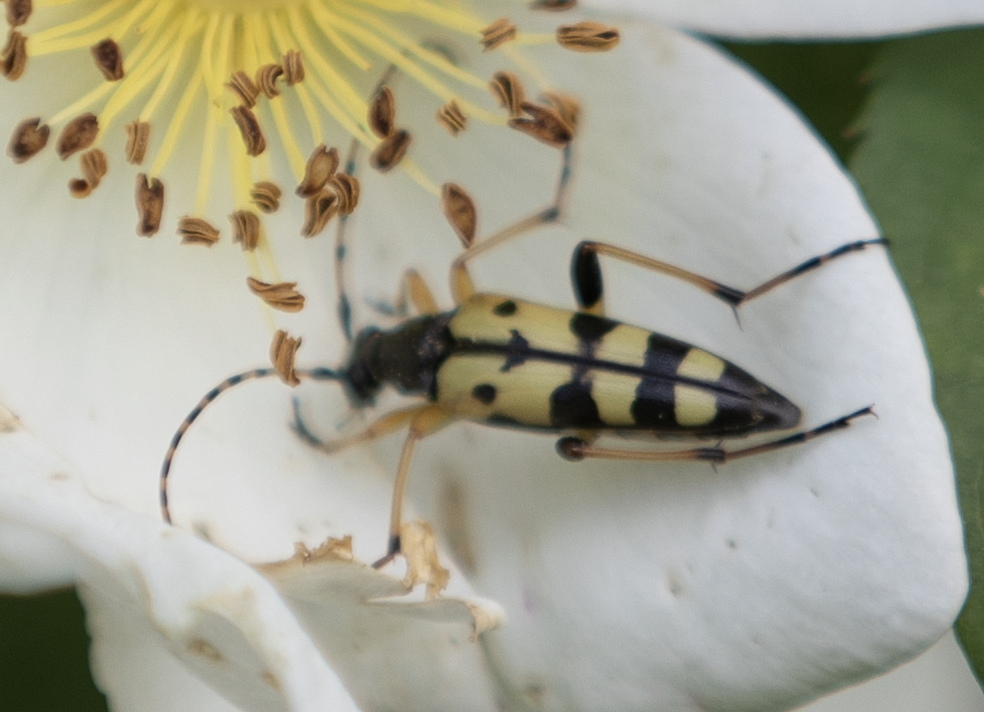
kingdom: Animalia
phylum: Arthropoda
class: Insecta
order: Coleoptera
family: Cerambycidae
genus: Rutpela
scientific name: Rutpela maculata
